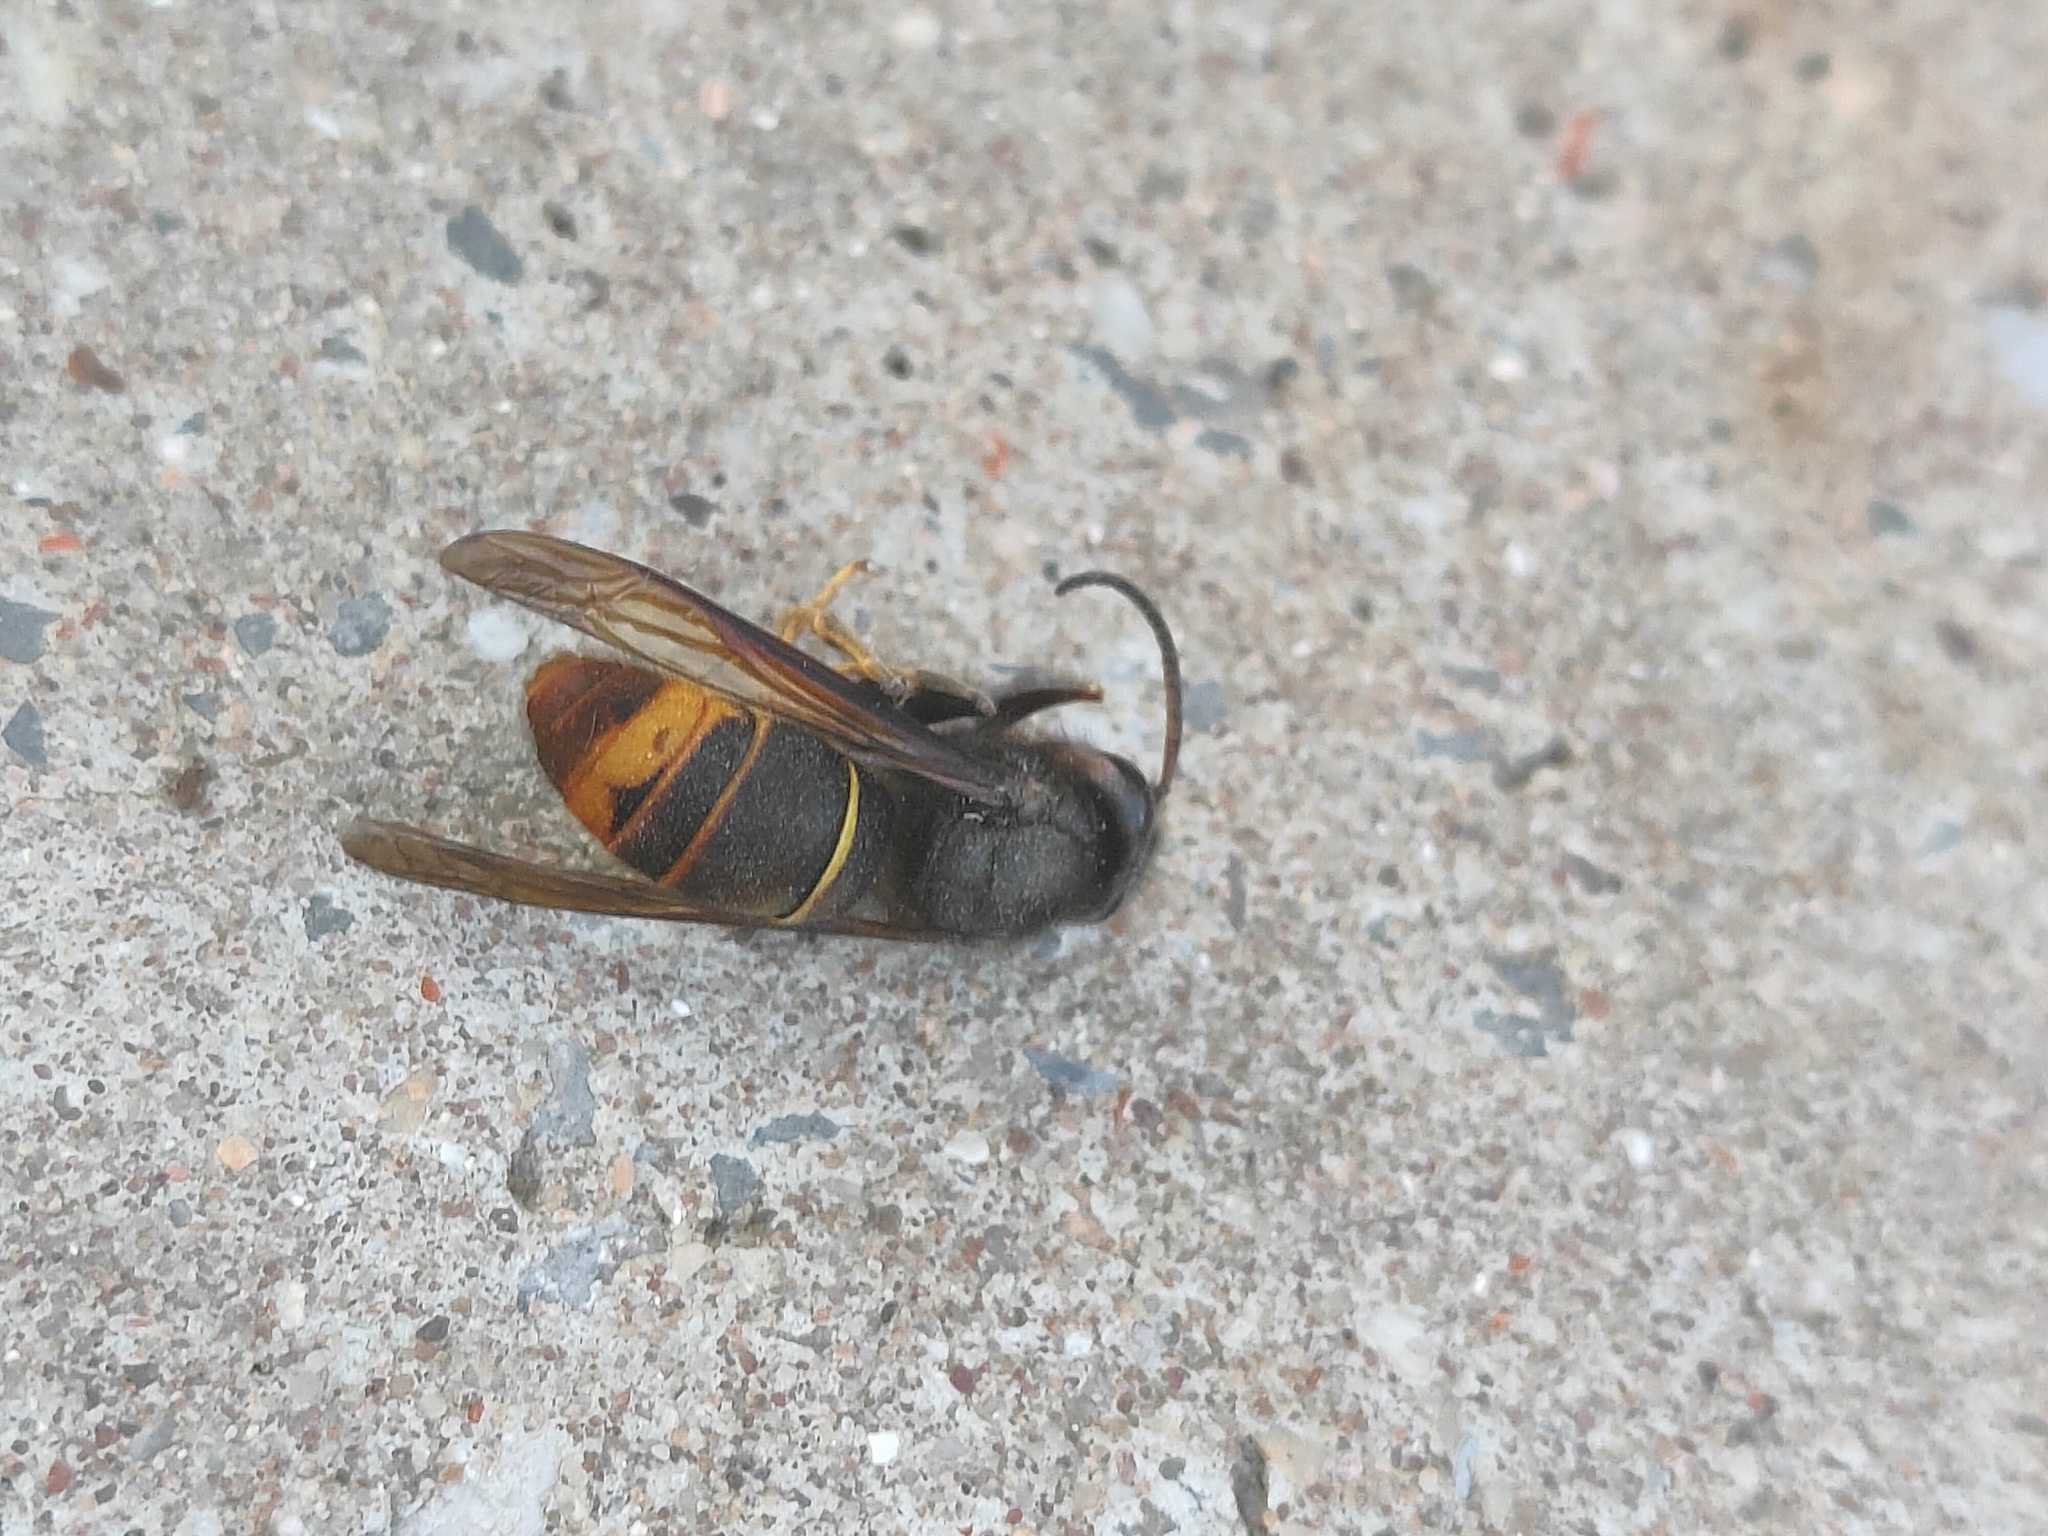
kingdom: Animalia
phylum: Arthropoda
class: Insecta
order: Hymenoptera
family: Vespidae
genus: Vespa
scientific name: Vespa velutina
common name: Asian hornet
